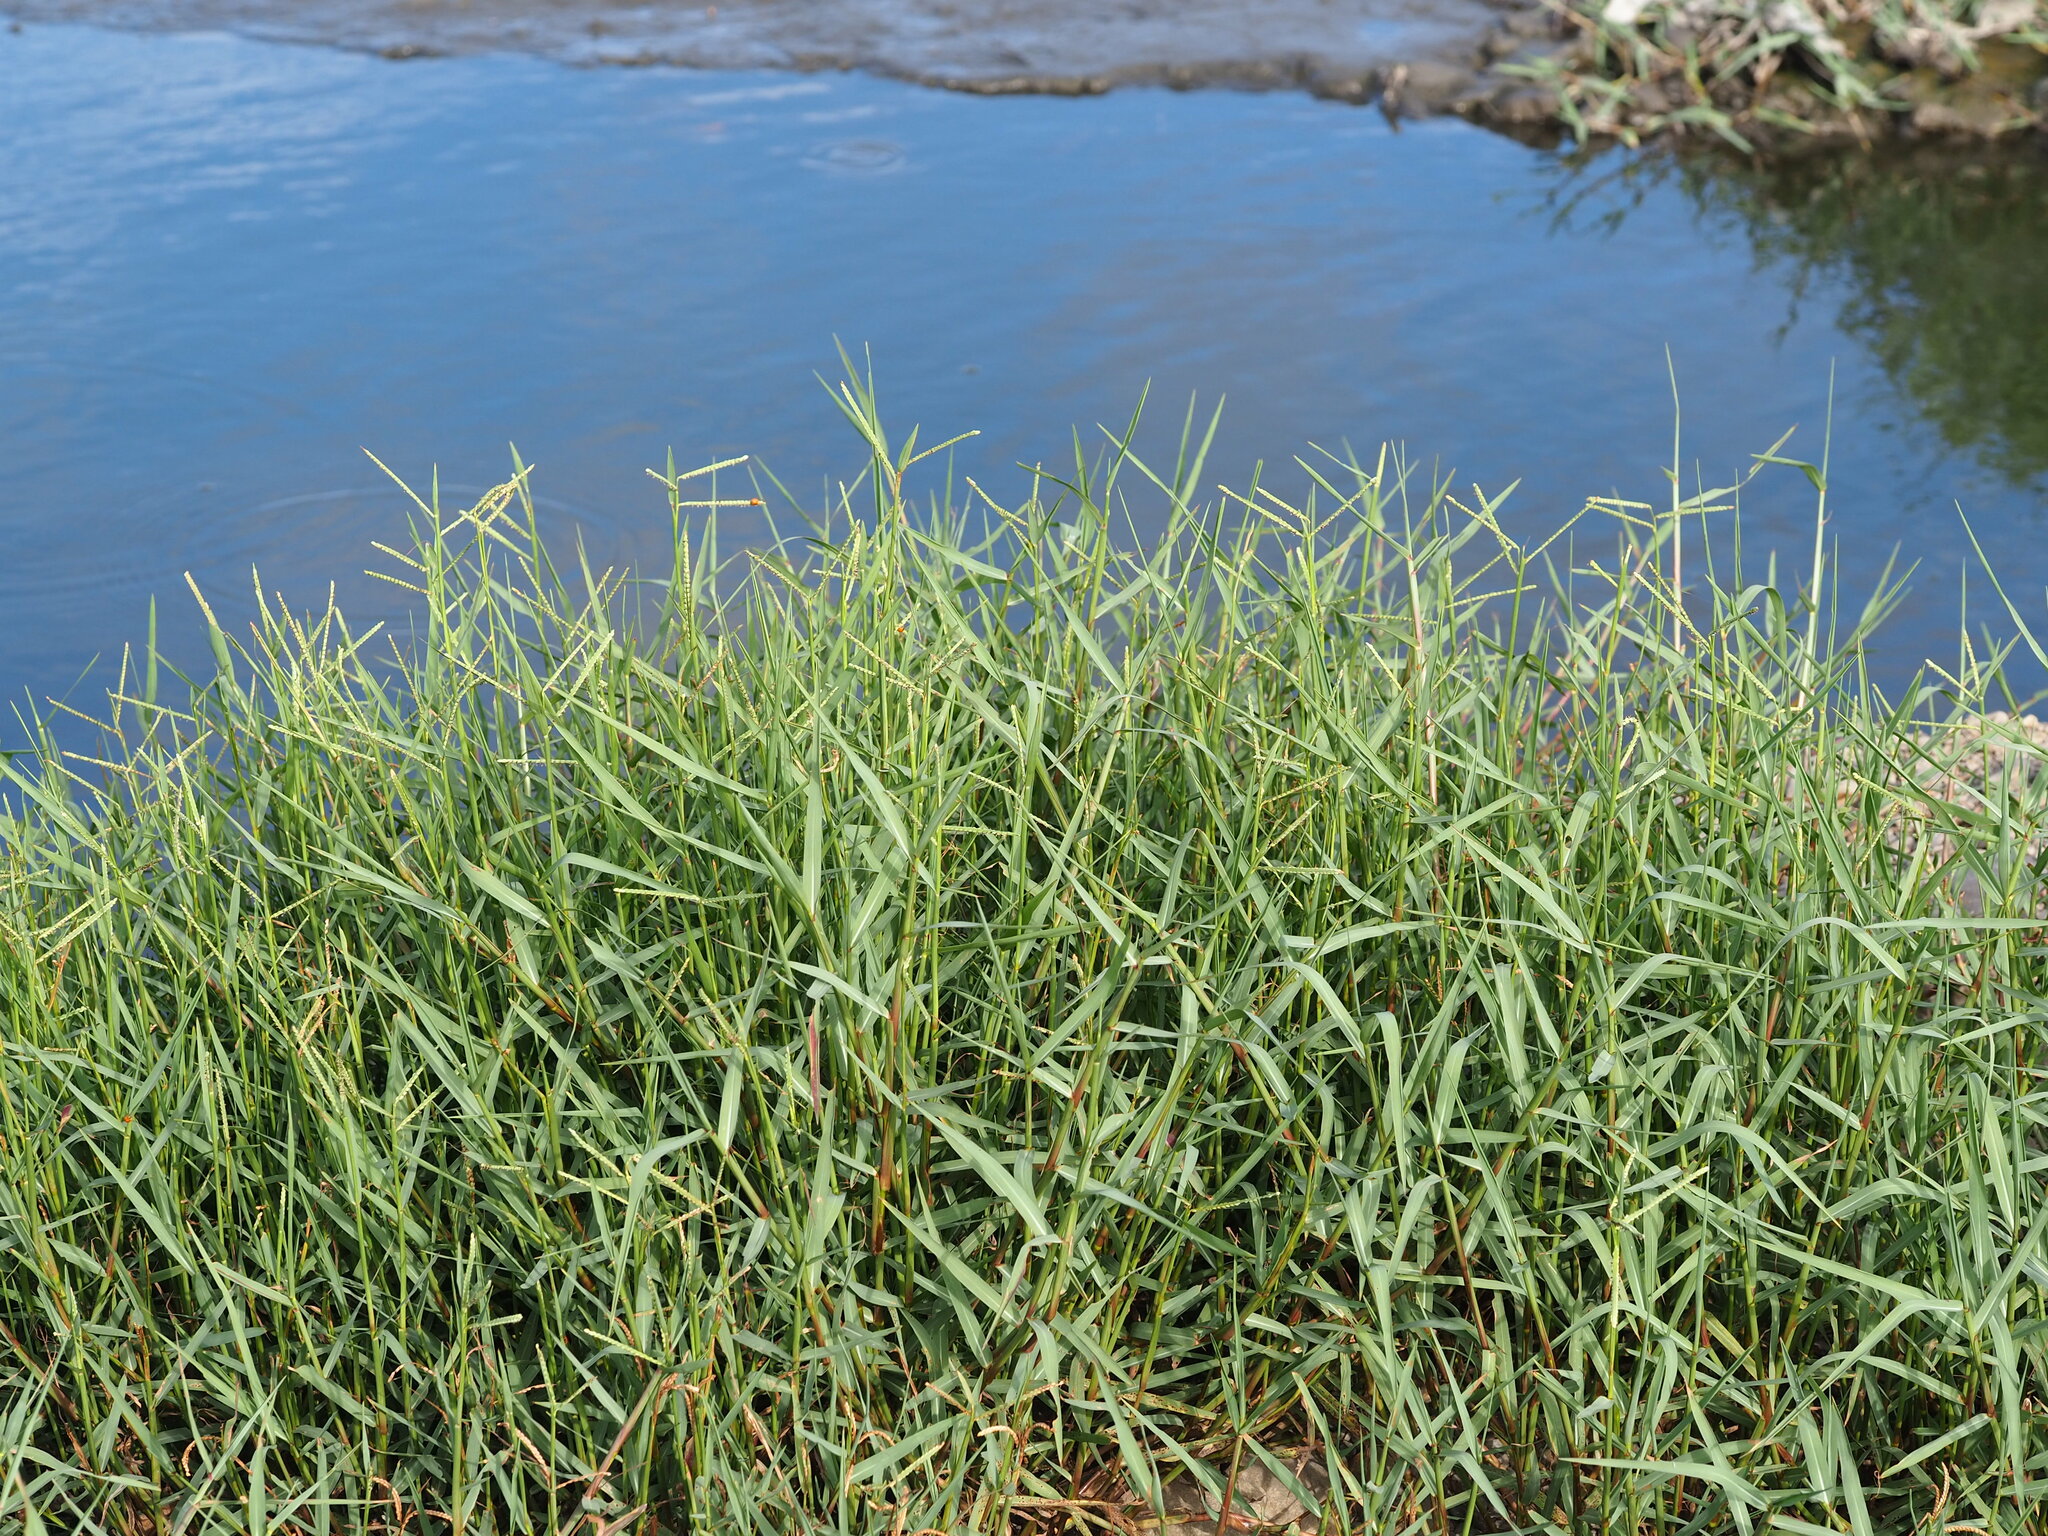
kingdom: Plantae
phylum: Tracheophyta
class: Liliopsida
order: Poales
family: Poaceae
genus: Paspalum
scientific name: Paspalum orbiculare
